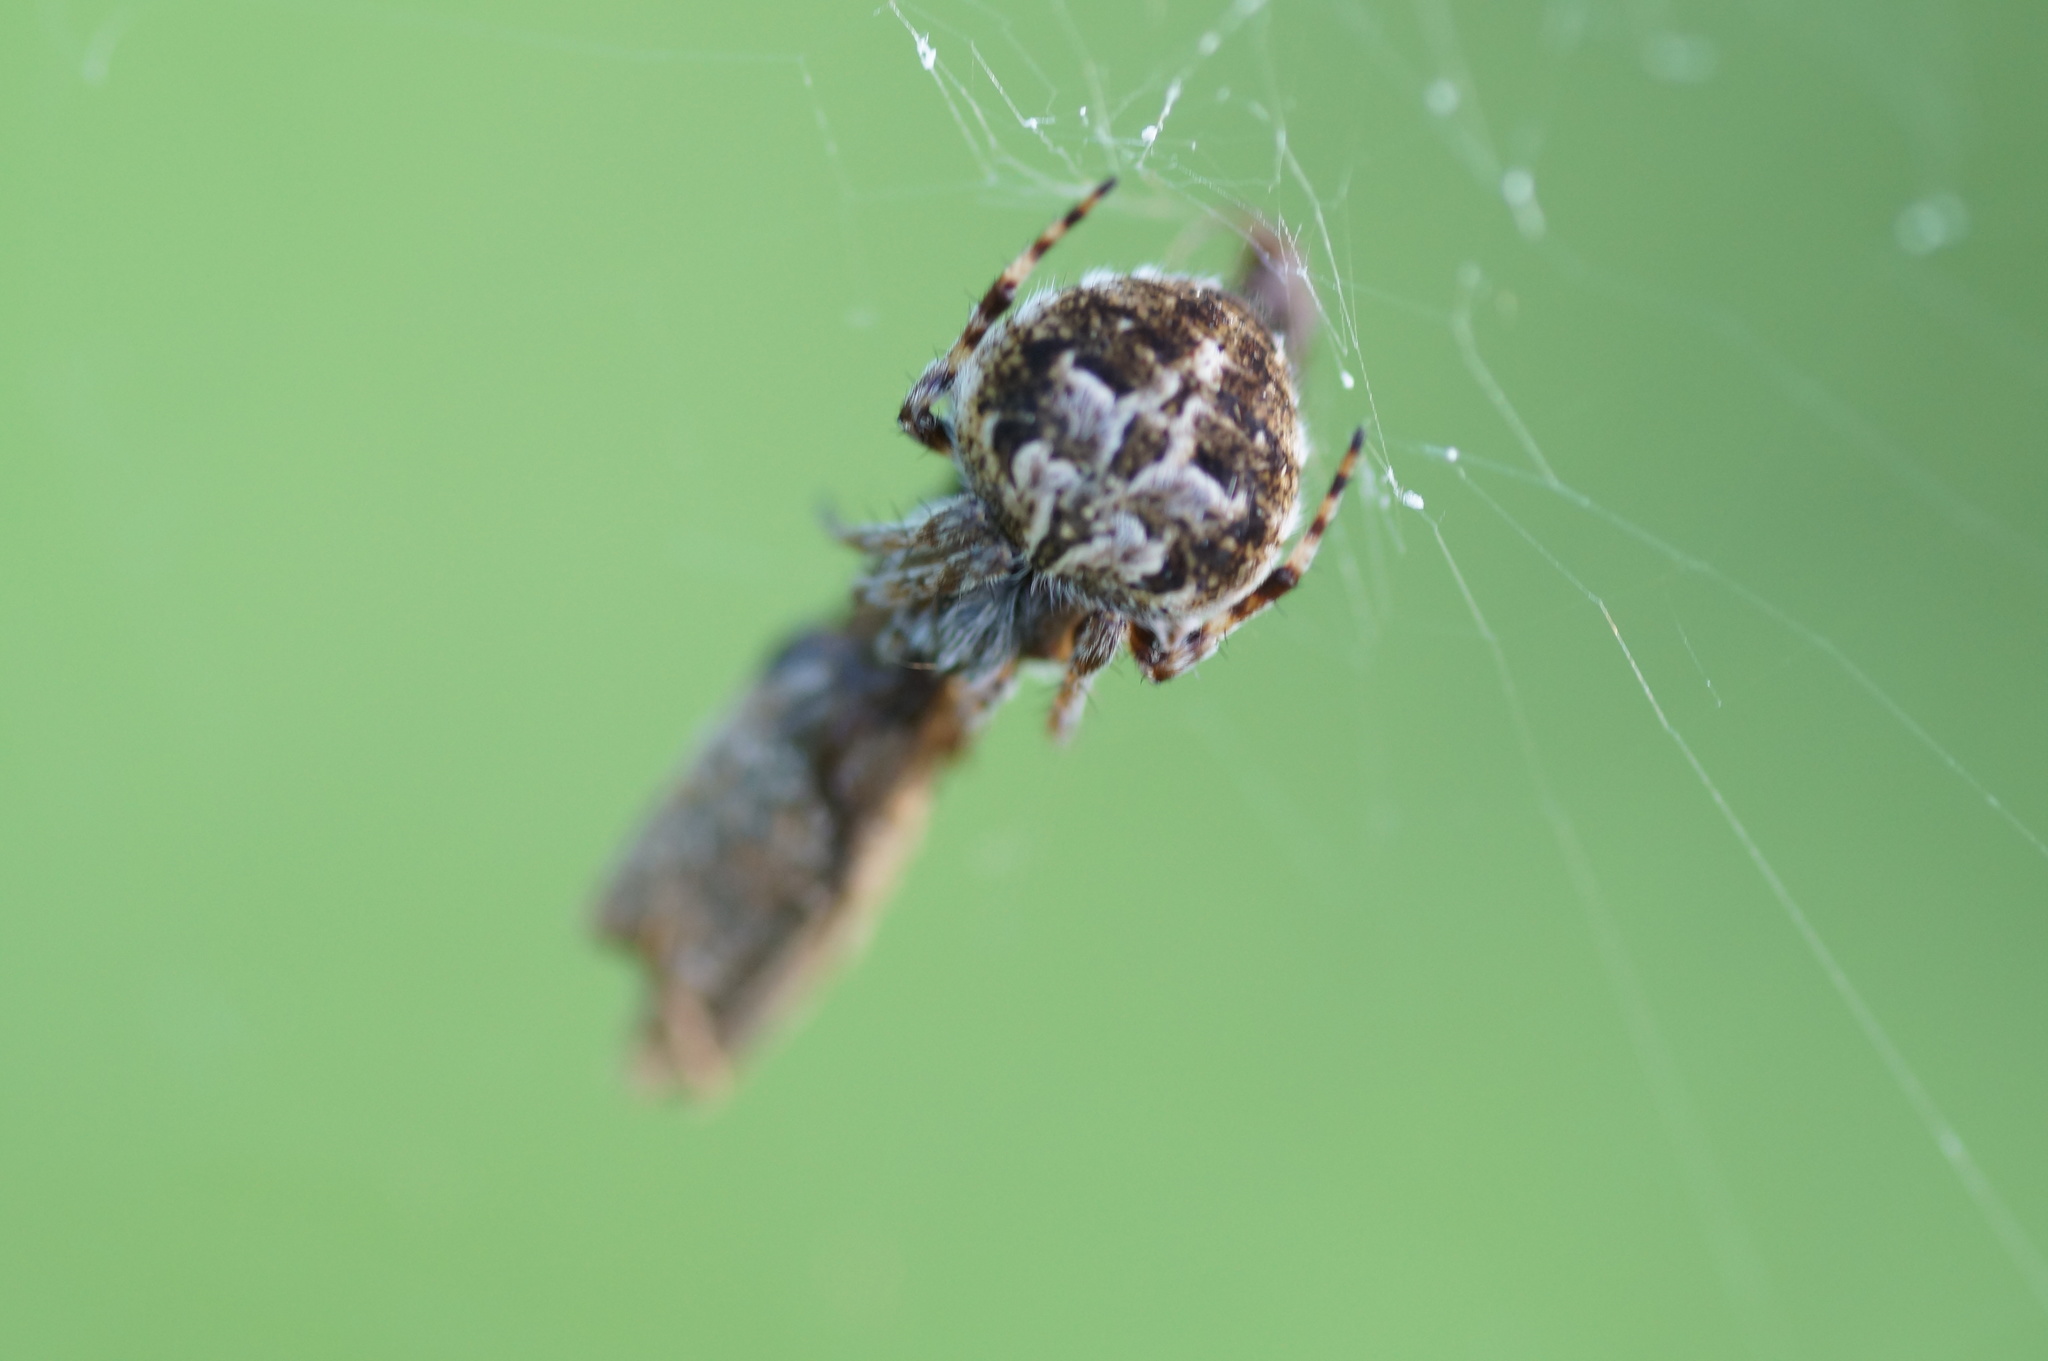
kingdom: Animalia
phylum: Arthropoda
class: Arachnida
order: Araneae
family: Araneidae
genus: Agalenatea
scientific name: Agalenatea redii
